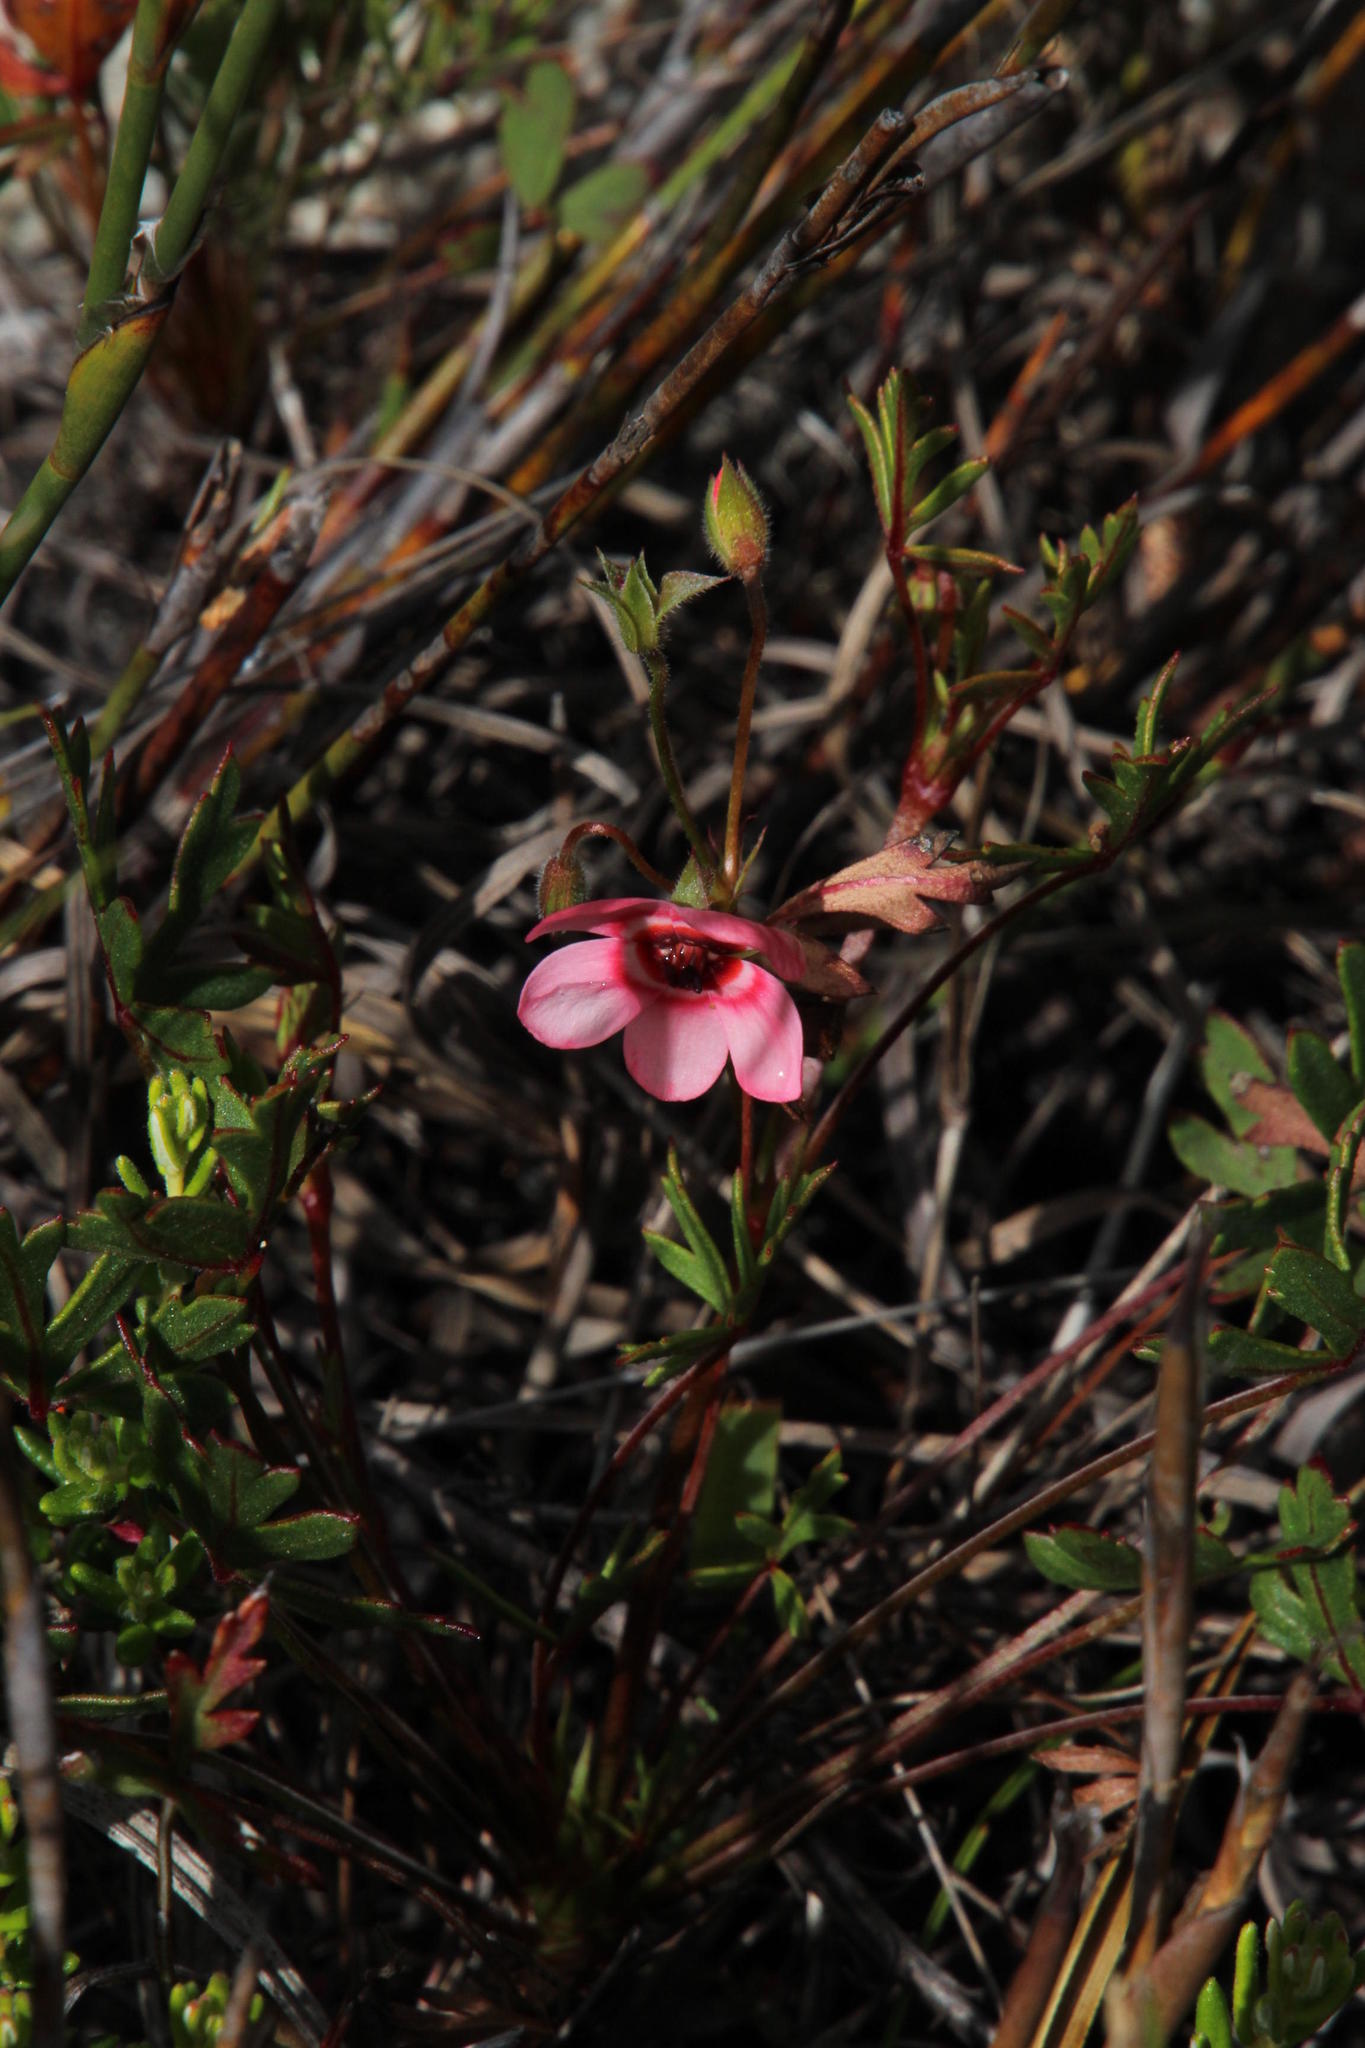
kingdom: Plantae
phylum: Tracheophyta
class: Magnoliopsida
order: Geraniales
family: Geraniaceae
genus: Pelargonium
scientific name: Pelargonium incarnatum
